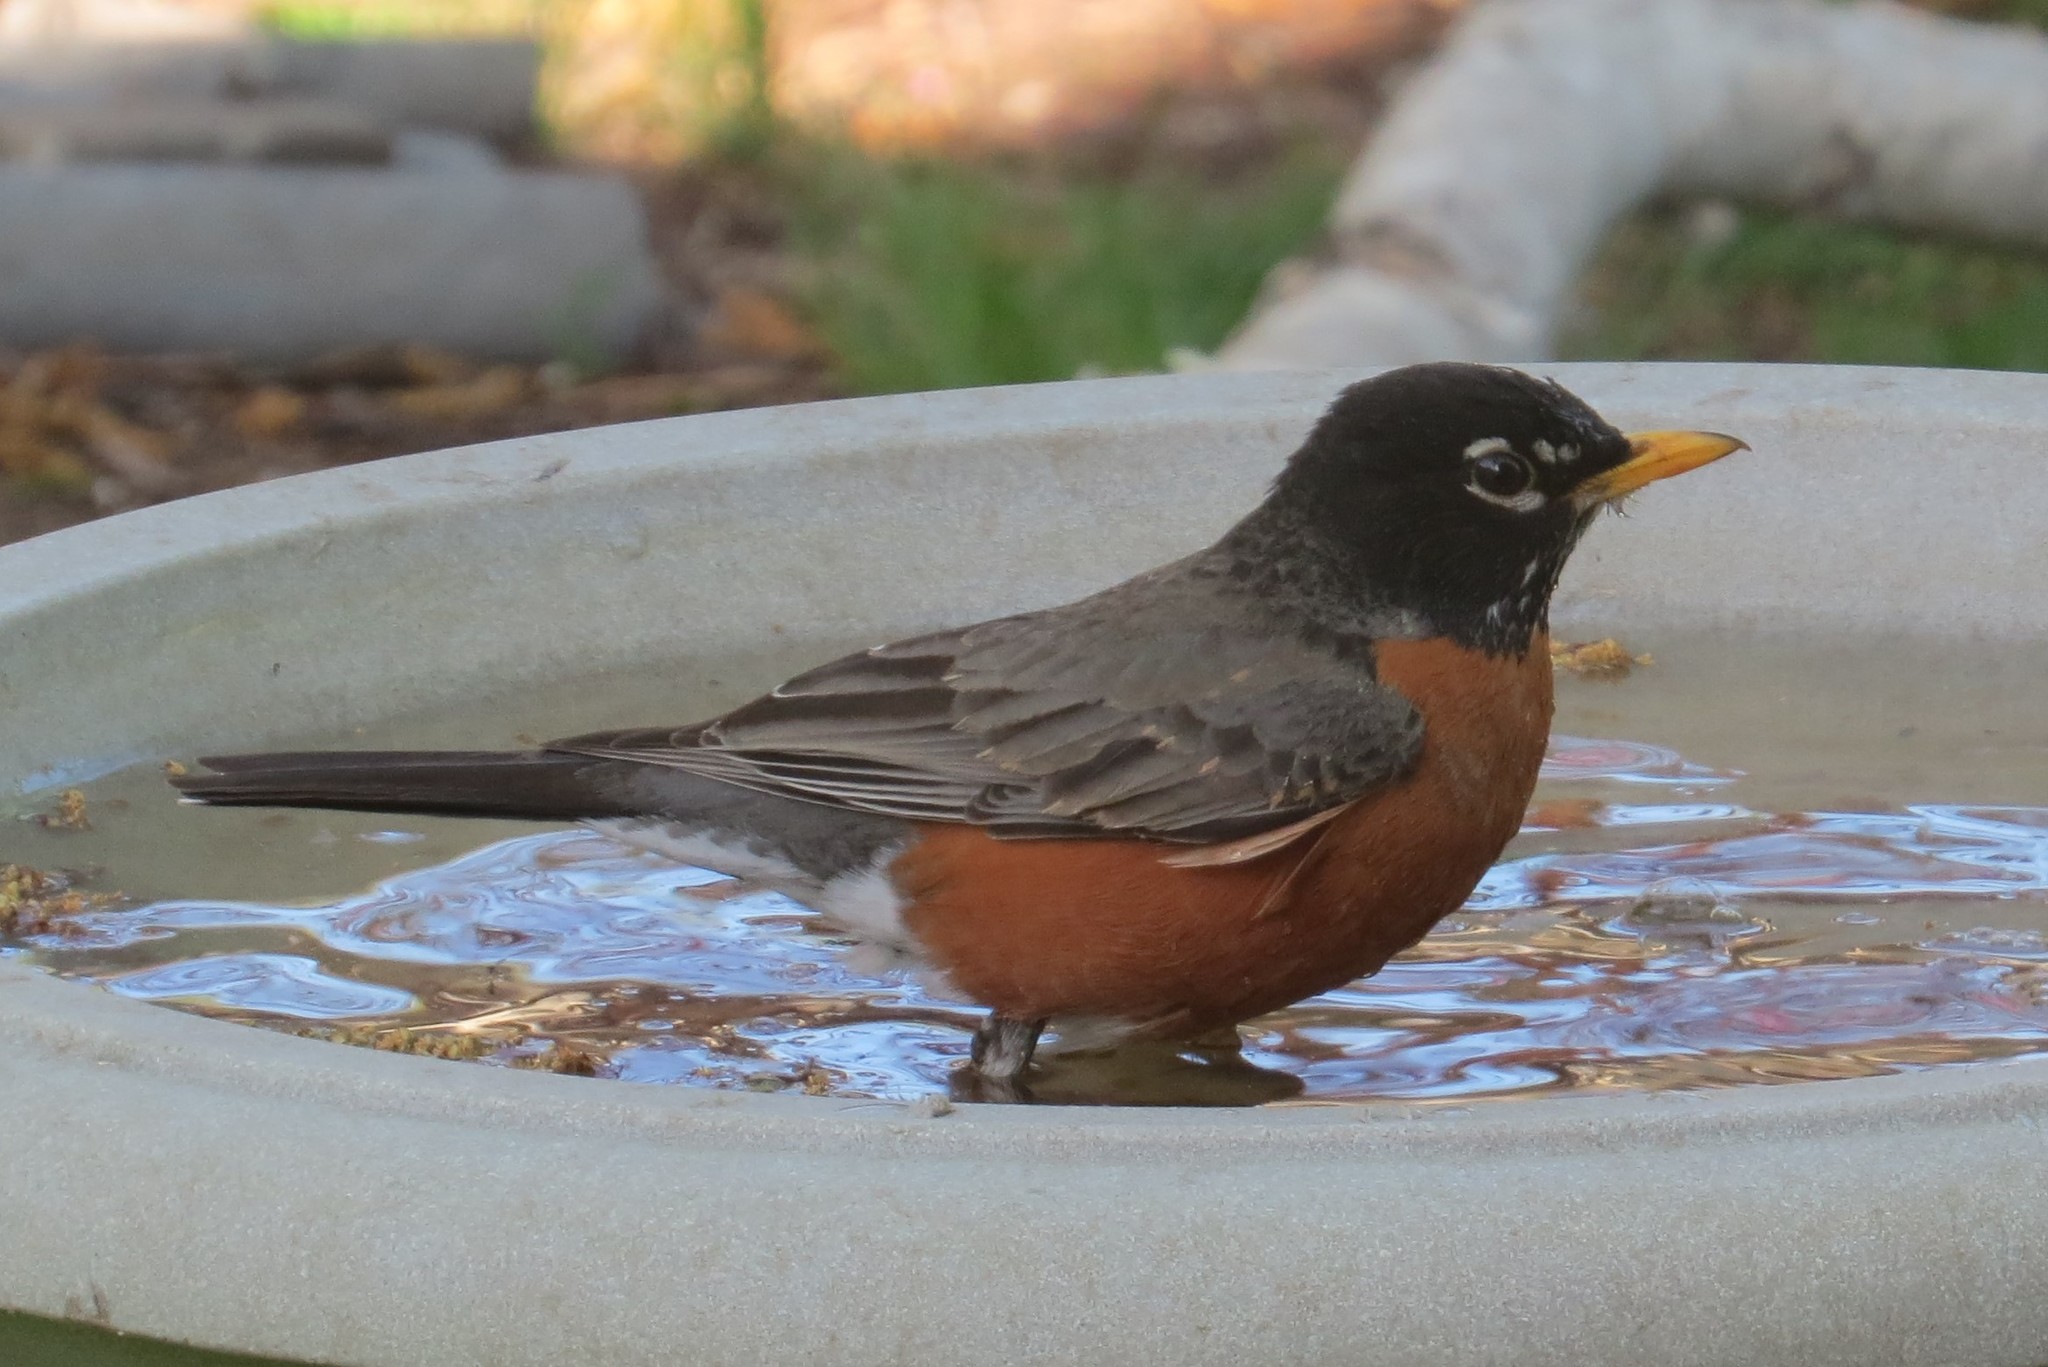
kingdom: Animalia
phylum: Chordata
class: Aves
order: Passeriformes
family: Turdidae
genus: Turdus
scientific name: Turdus migratorius
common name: American robin
